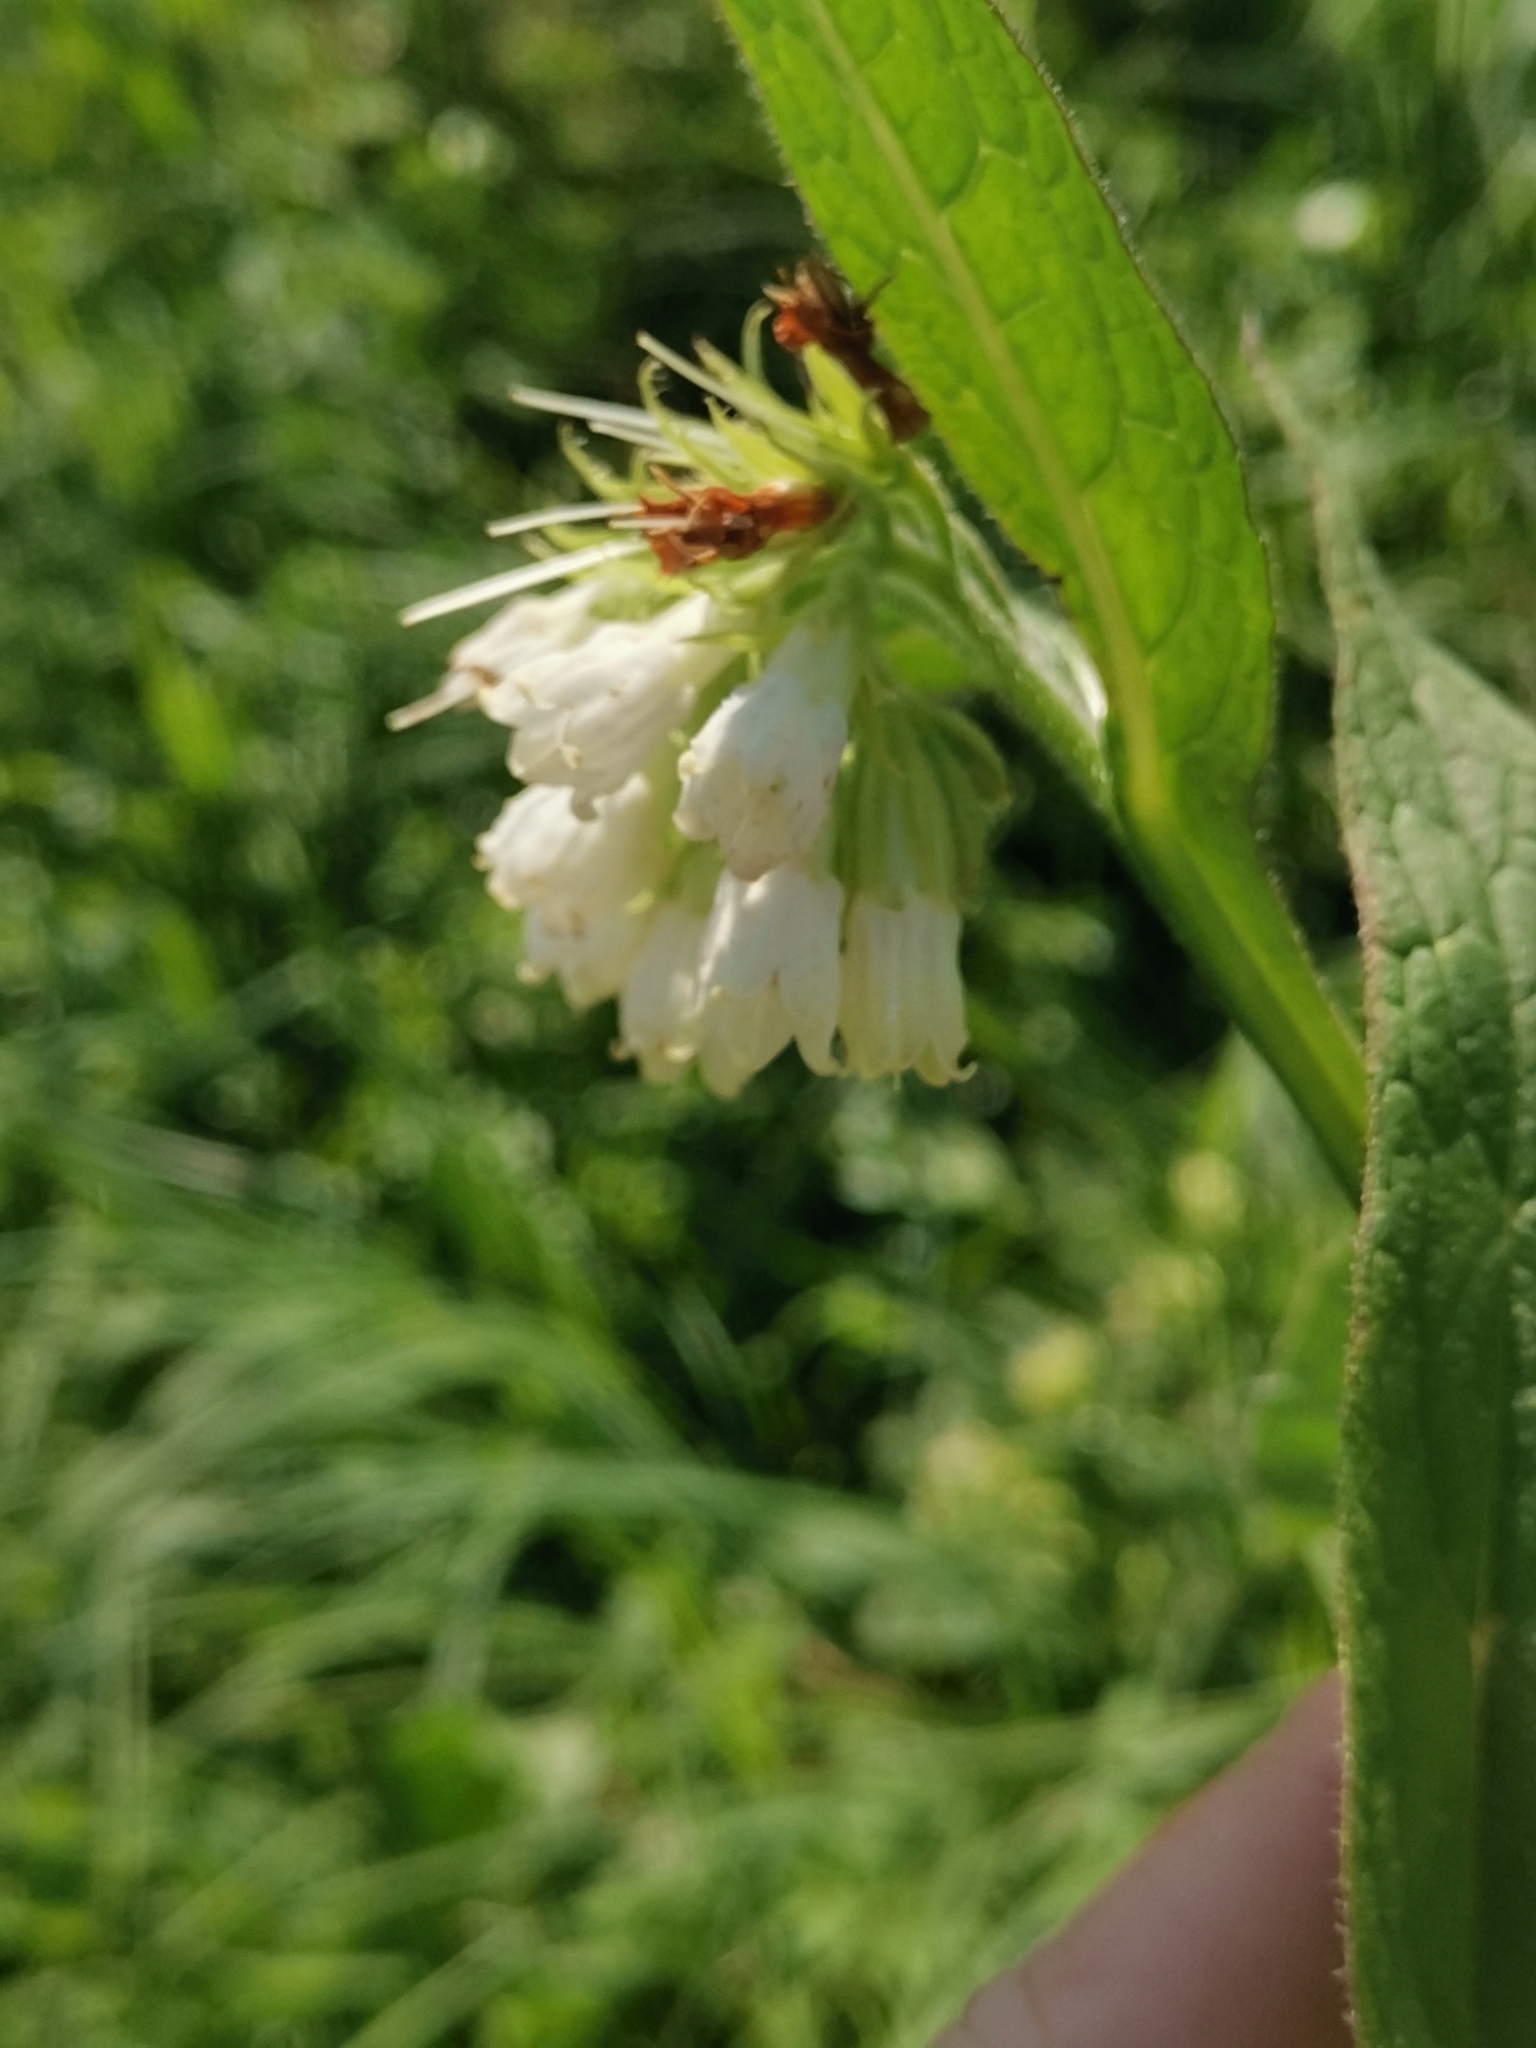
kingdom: Plantae
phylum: Tracheophyta
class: Magnoliopsida
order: Boraginales
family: Boraginaceae
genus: Symphytum
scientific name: Symphytum bohemicum
